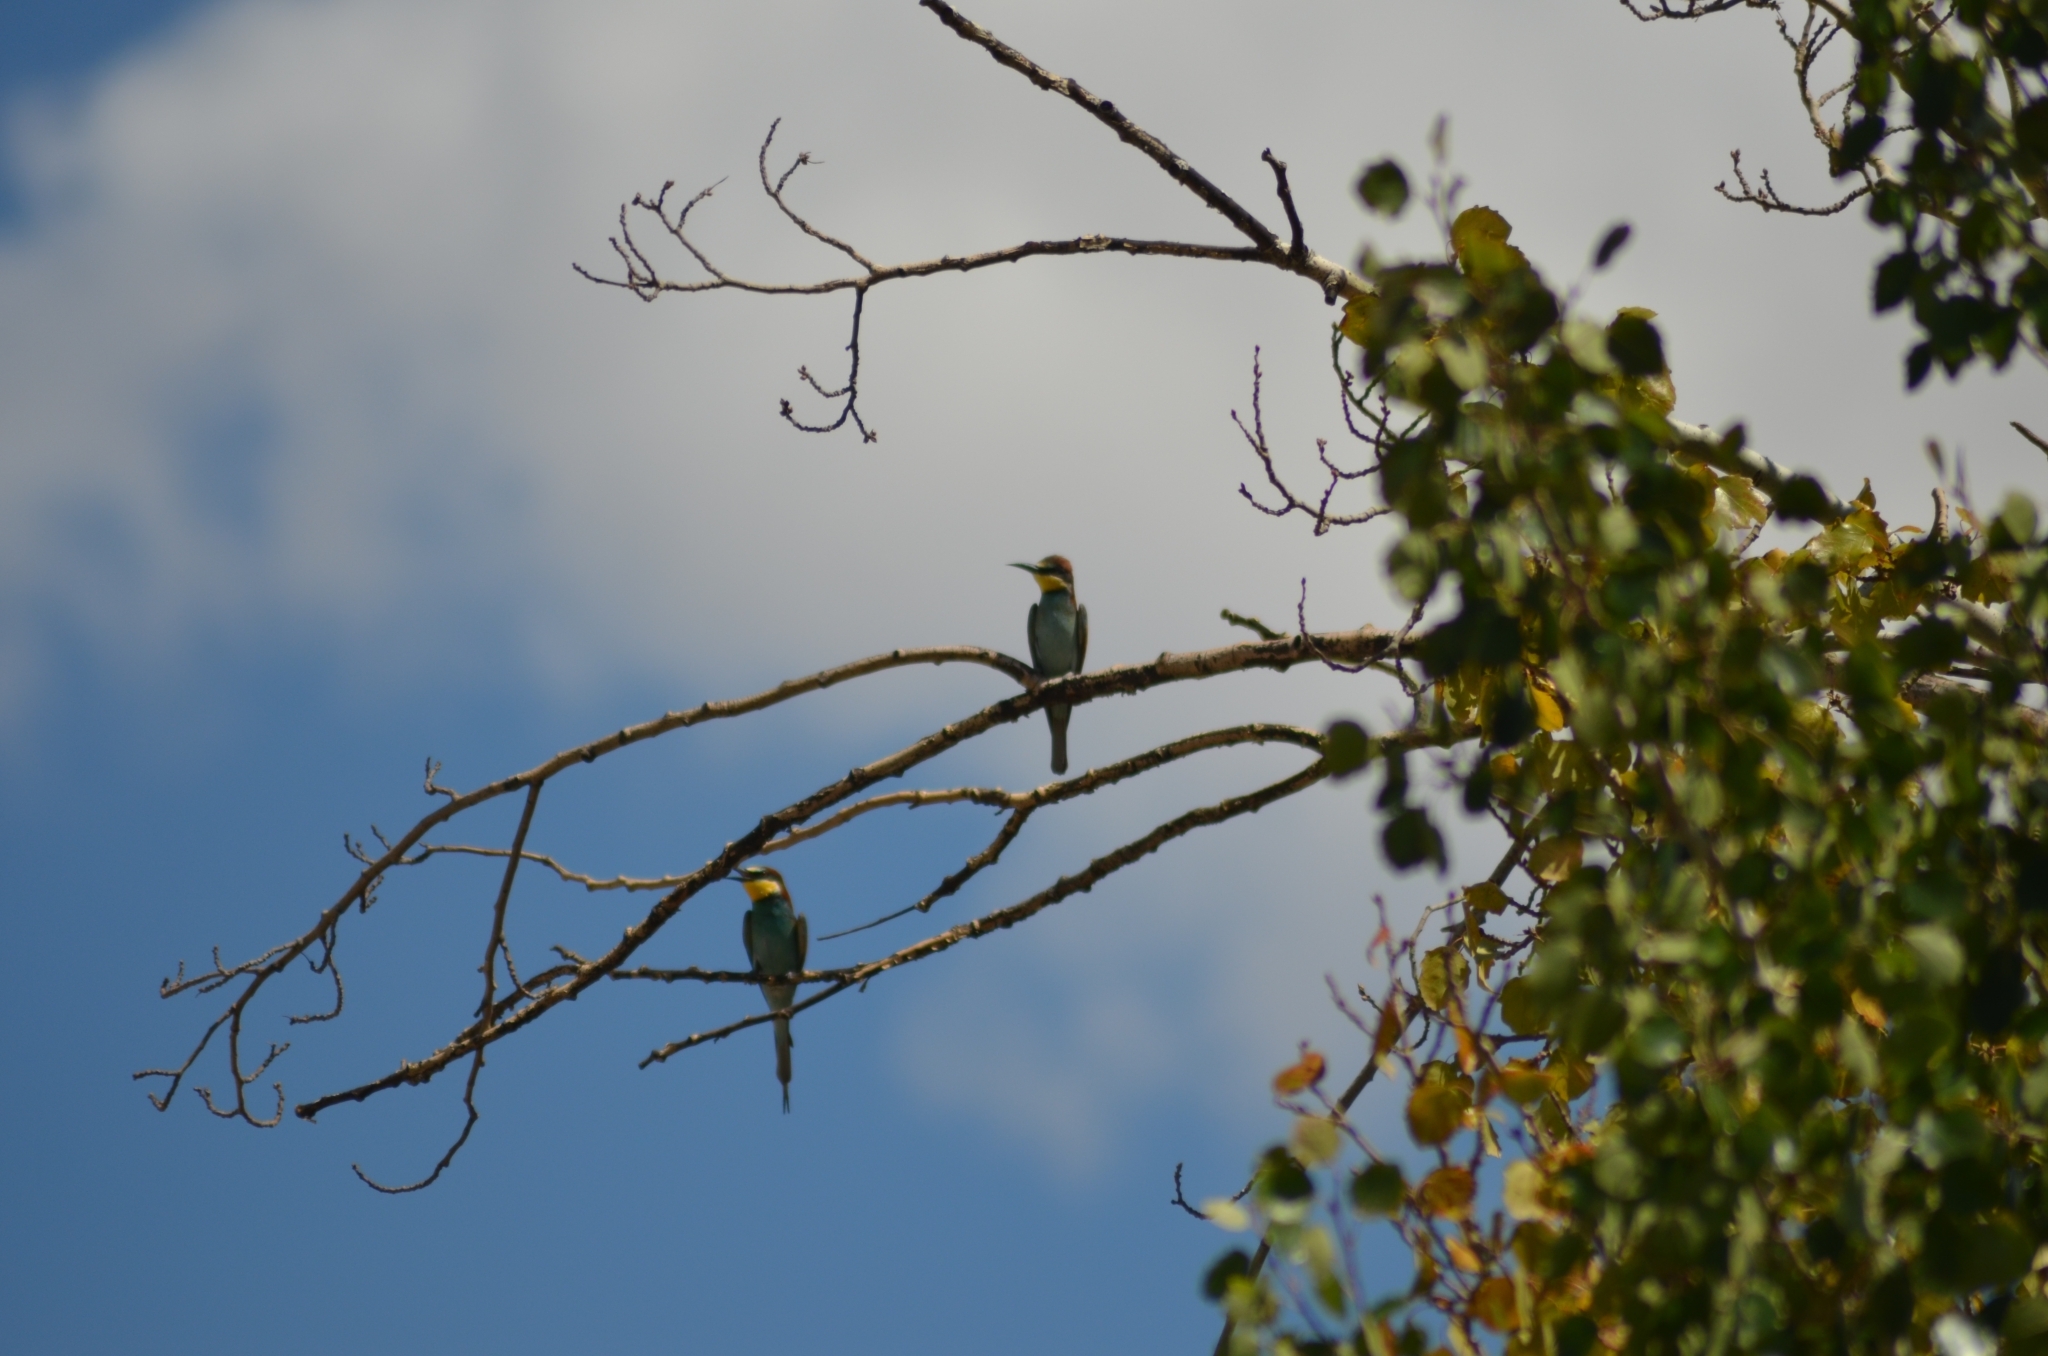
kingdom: Animalia
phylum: Chordata
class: Aves
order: Coraciiformes
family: Meropidae
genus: Merops
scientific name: Merops apiaster
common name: European bee-eater
